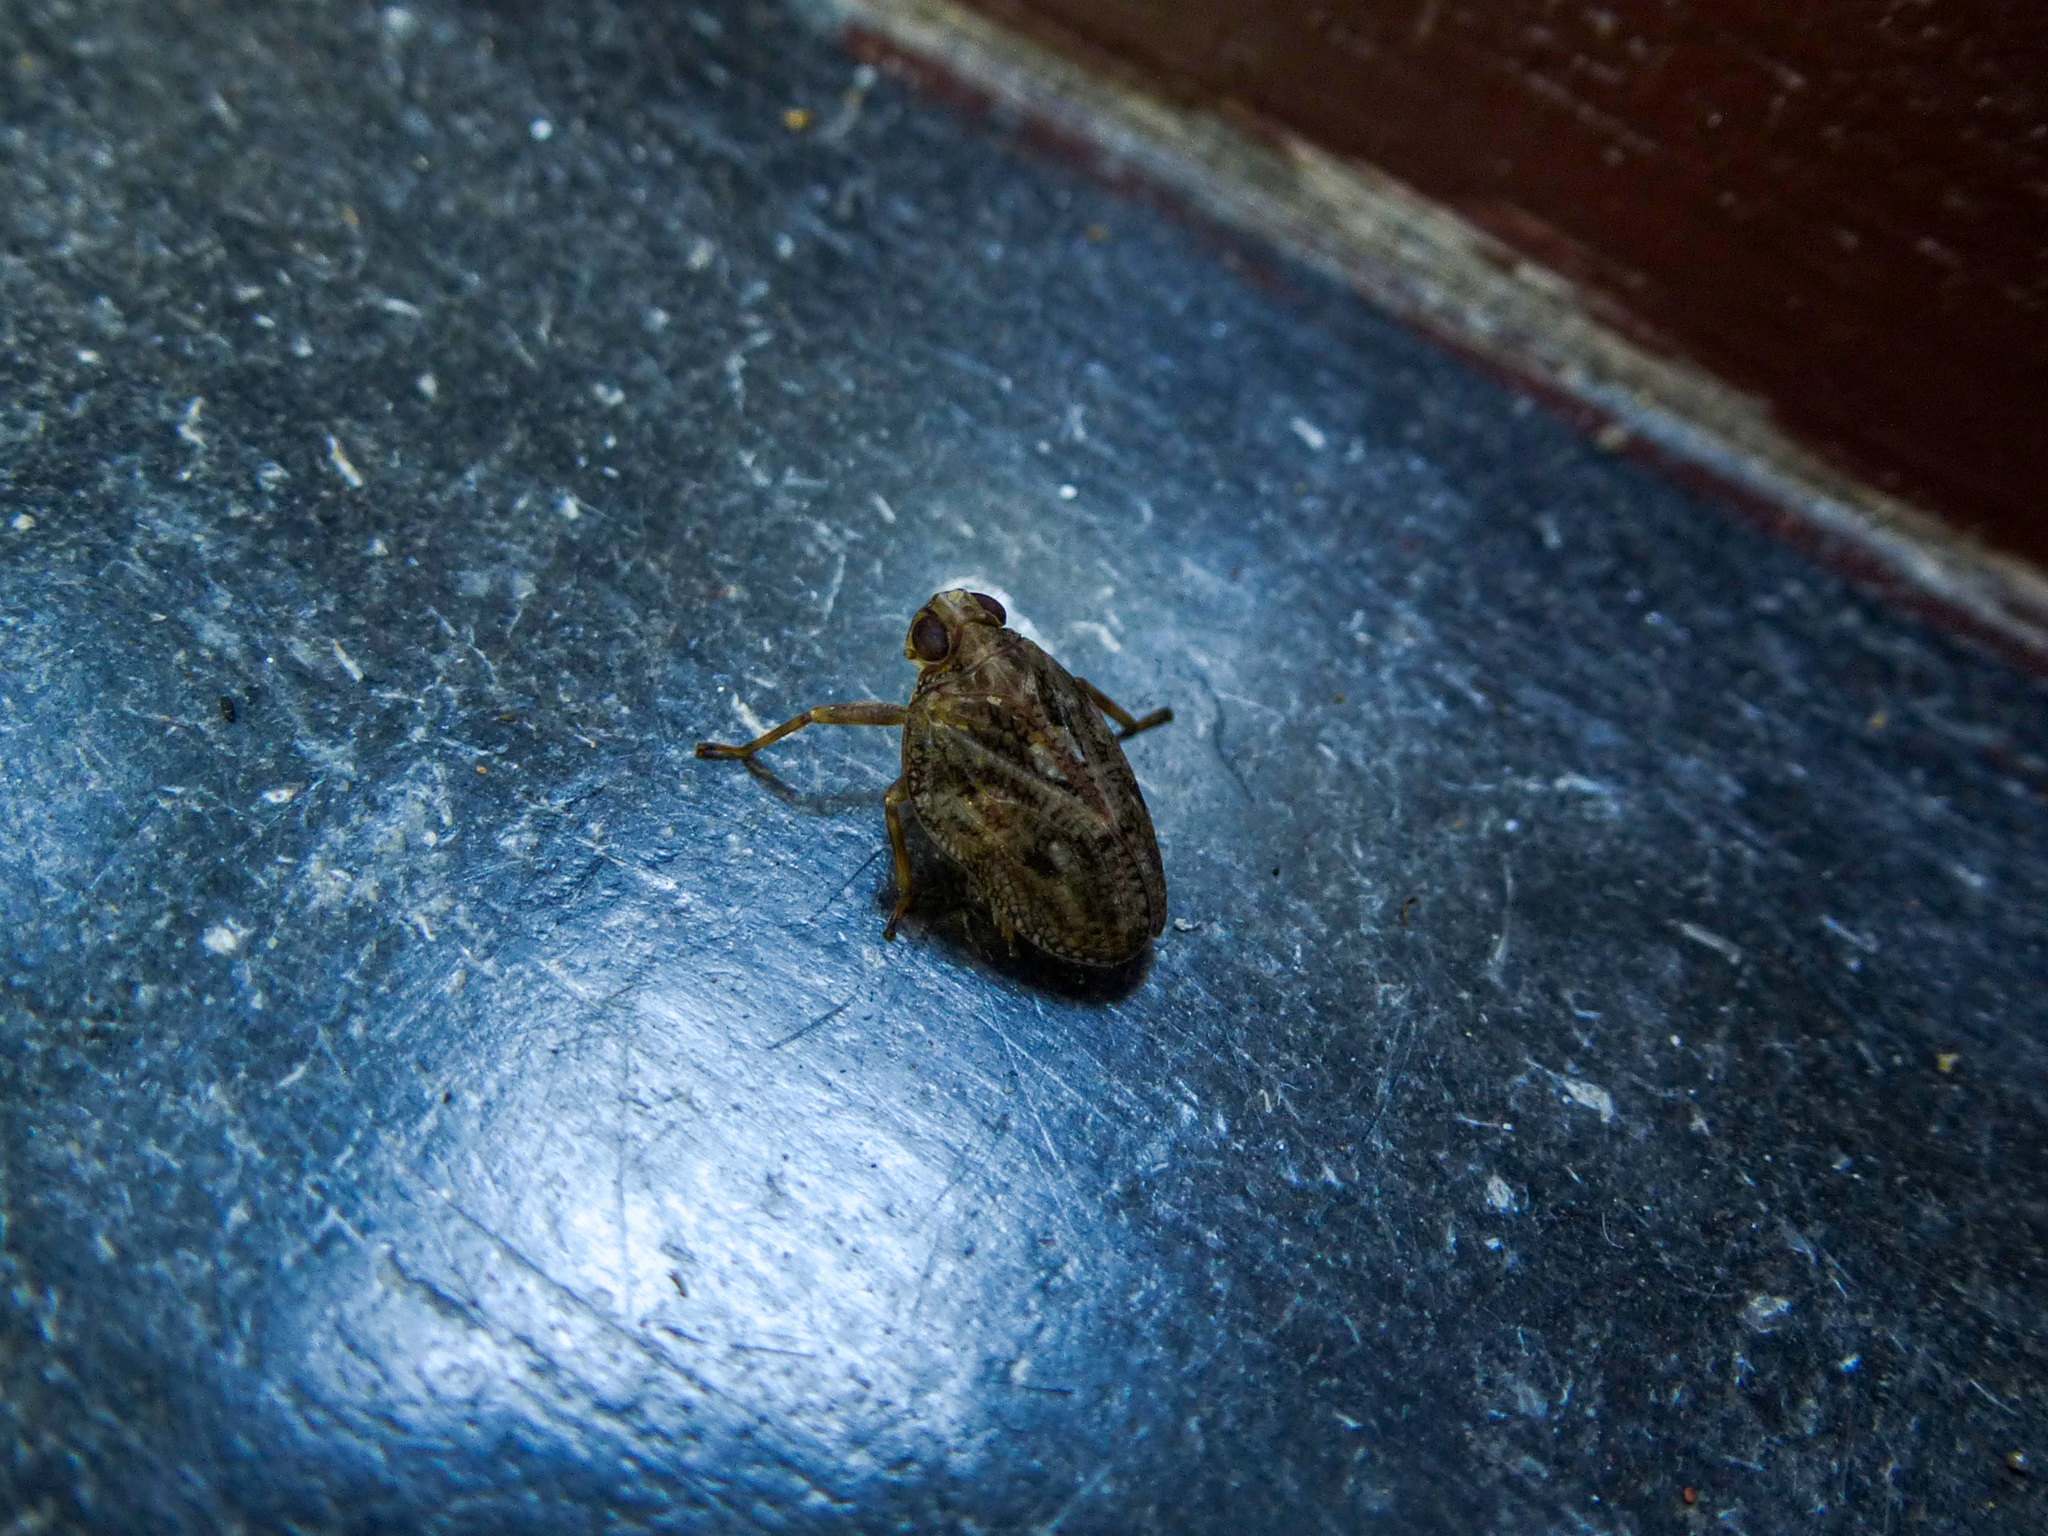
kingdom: Animalia
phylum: Arthropoda
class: Insecta
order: Hemiptera
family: Issidae
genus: Issus
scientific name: Issus coleoptratus
